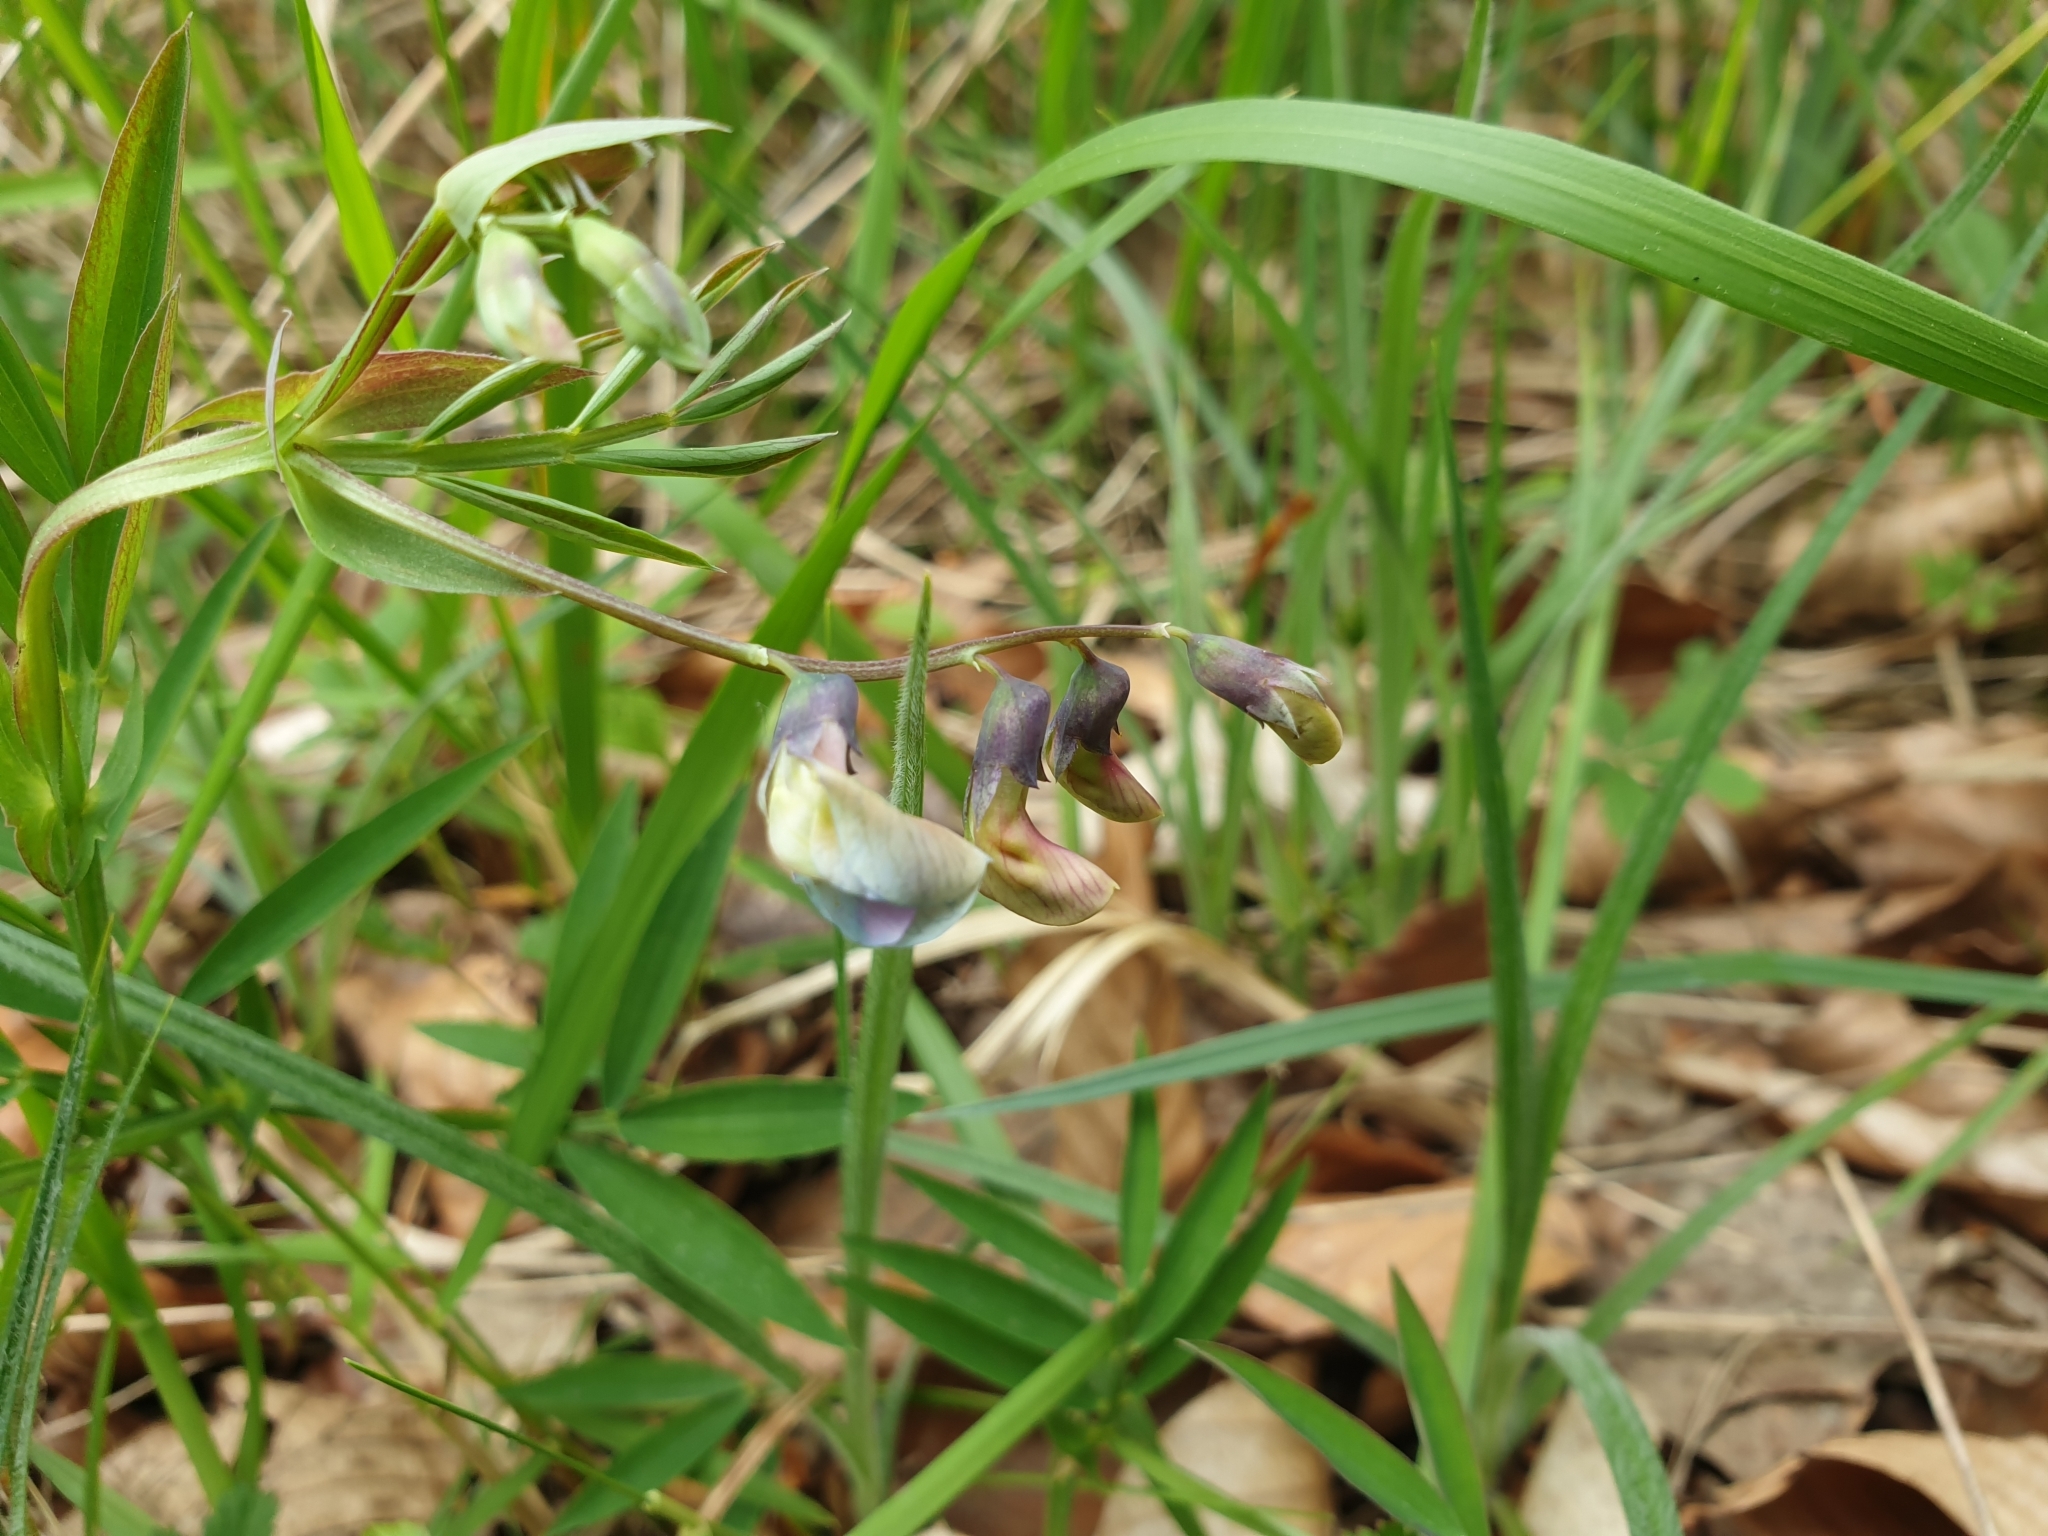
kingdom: Plantae
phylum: Tracheophyta
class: Magnoliopsida
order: Fabales
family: Fabaceae
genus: Lathyrus
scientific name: Lathyrus linifolius
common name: Bitter-vetch
